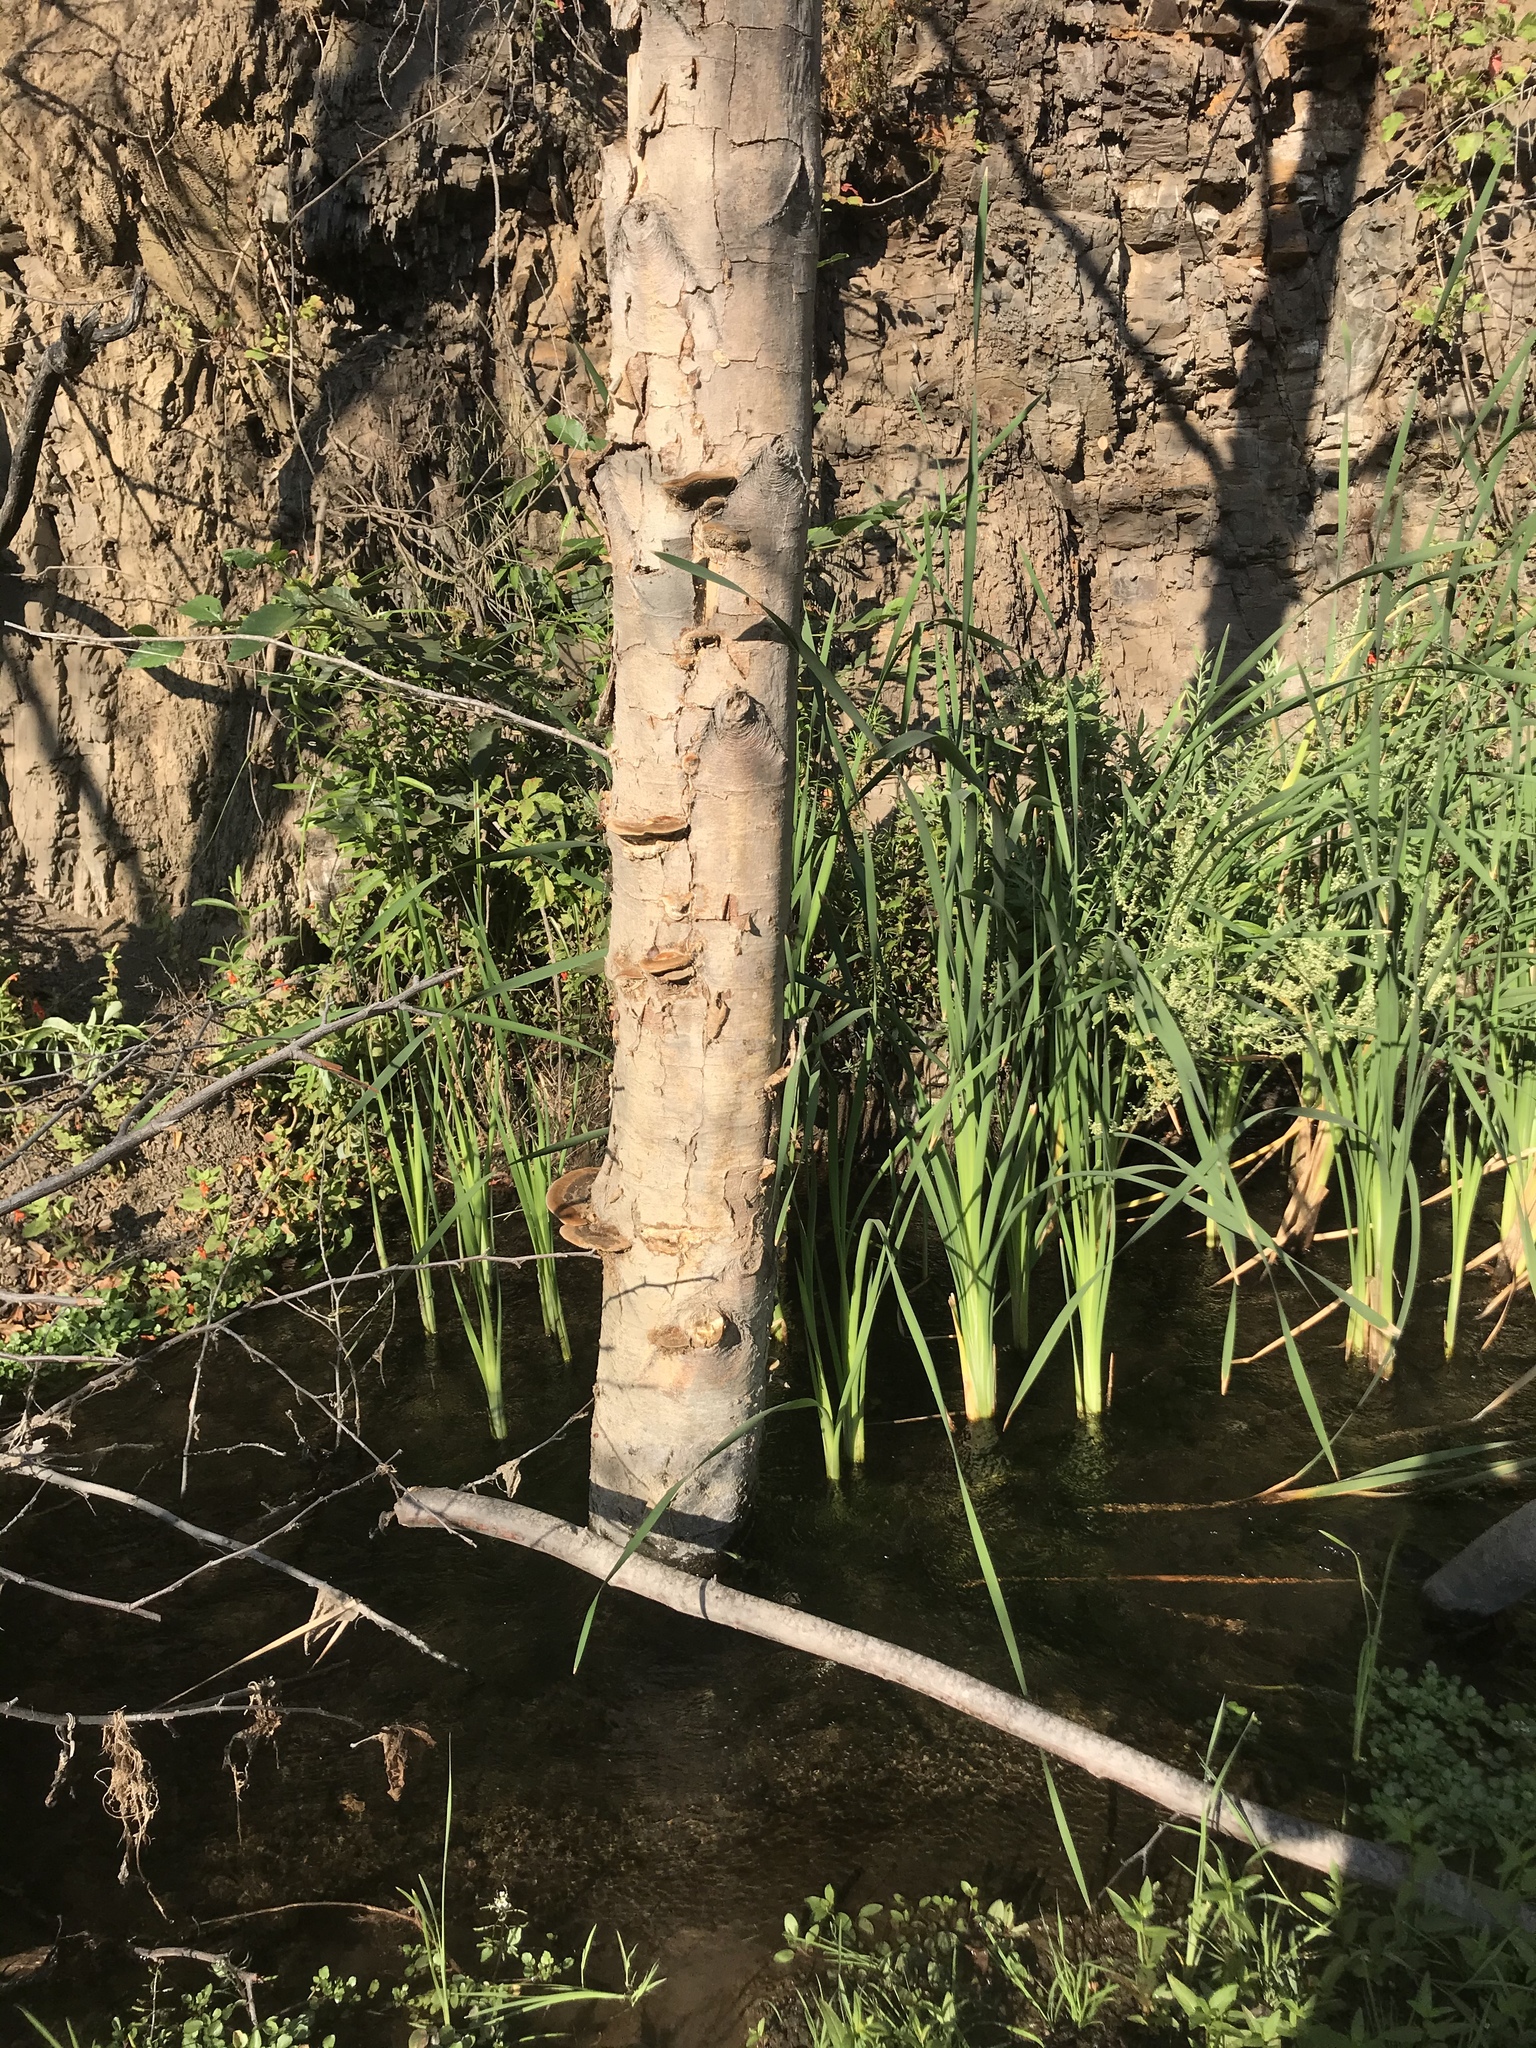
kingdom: Fungi
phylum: Basidiomycota
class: Agaricomycetes
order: Polyporales
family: Polyporaceae
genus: Coriolopsis
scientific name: Coriolopsis gallica
